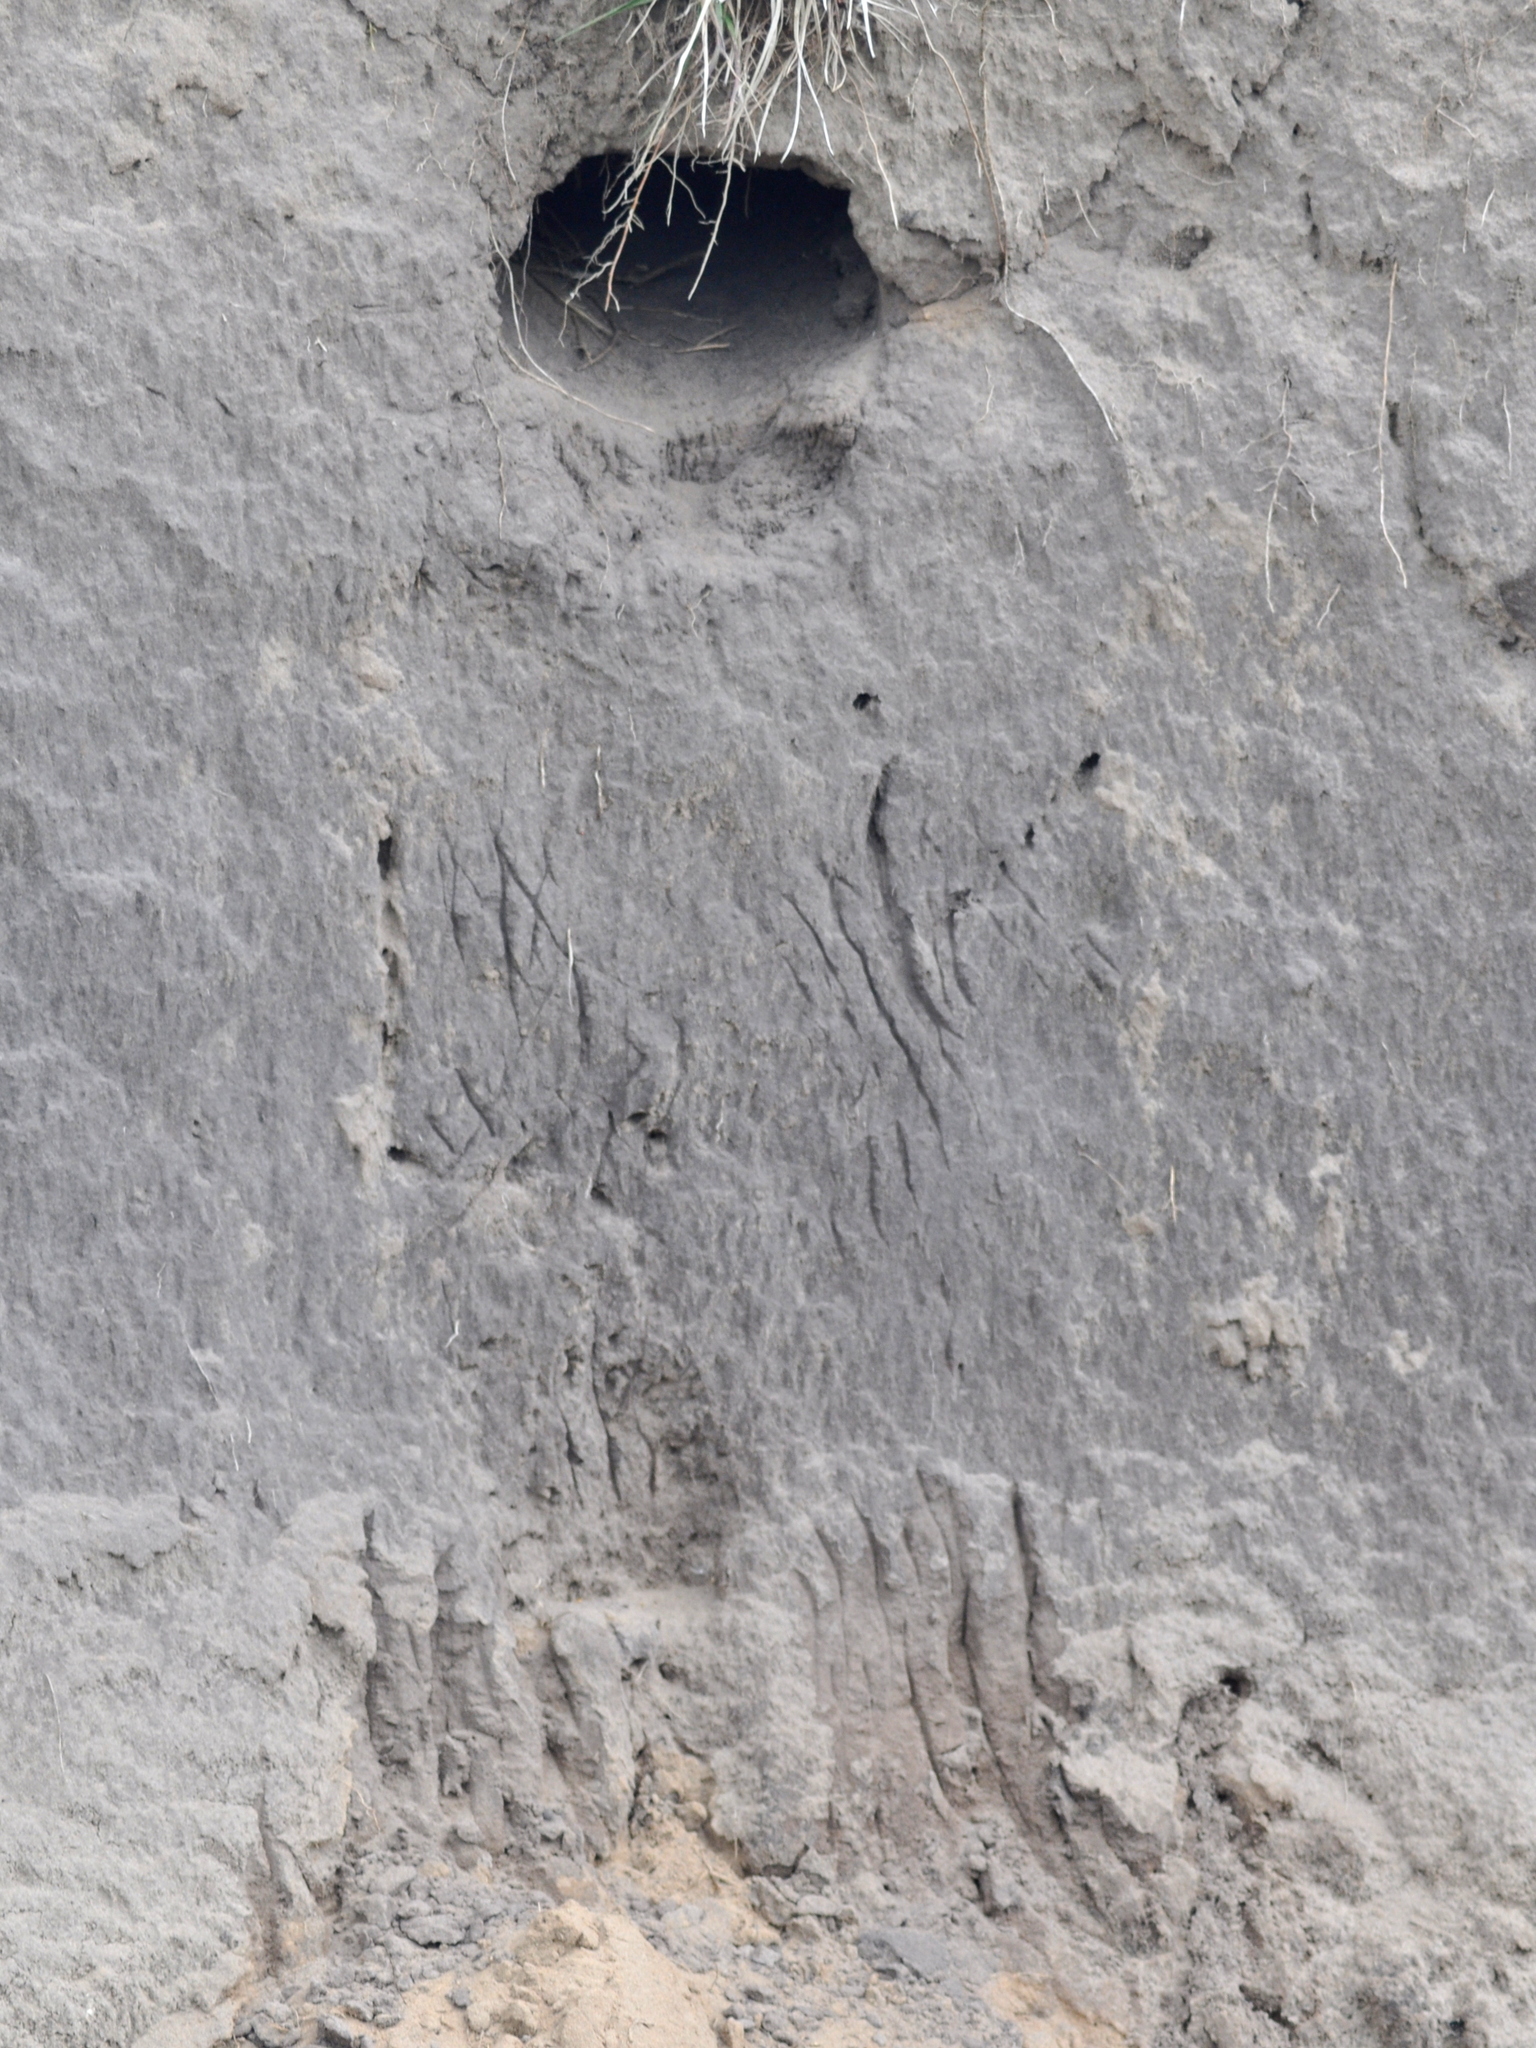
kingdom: Animalia
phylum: Chordata
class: Squamata
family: Teiidae
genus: Salvator
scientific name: Salvator merianae
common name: Argentine black and white tegu
